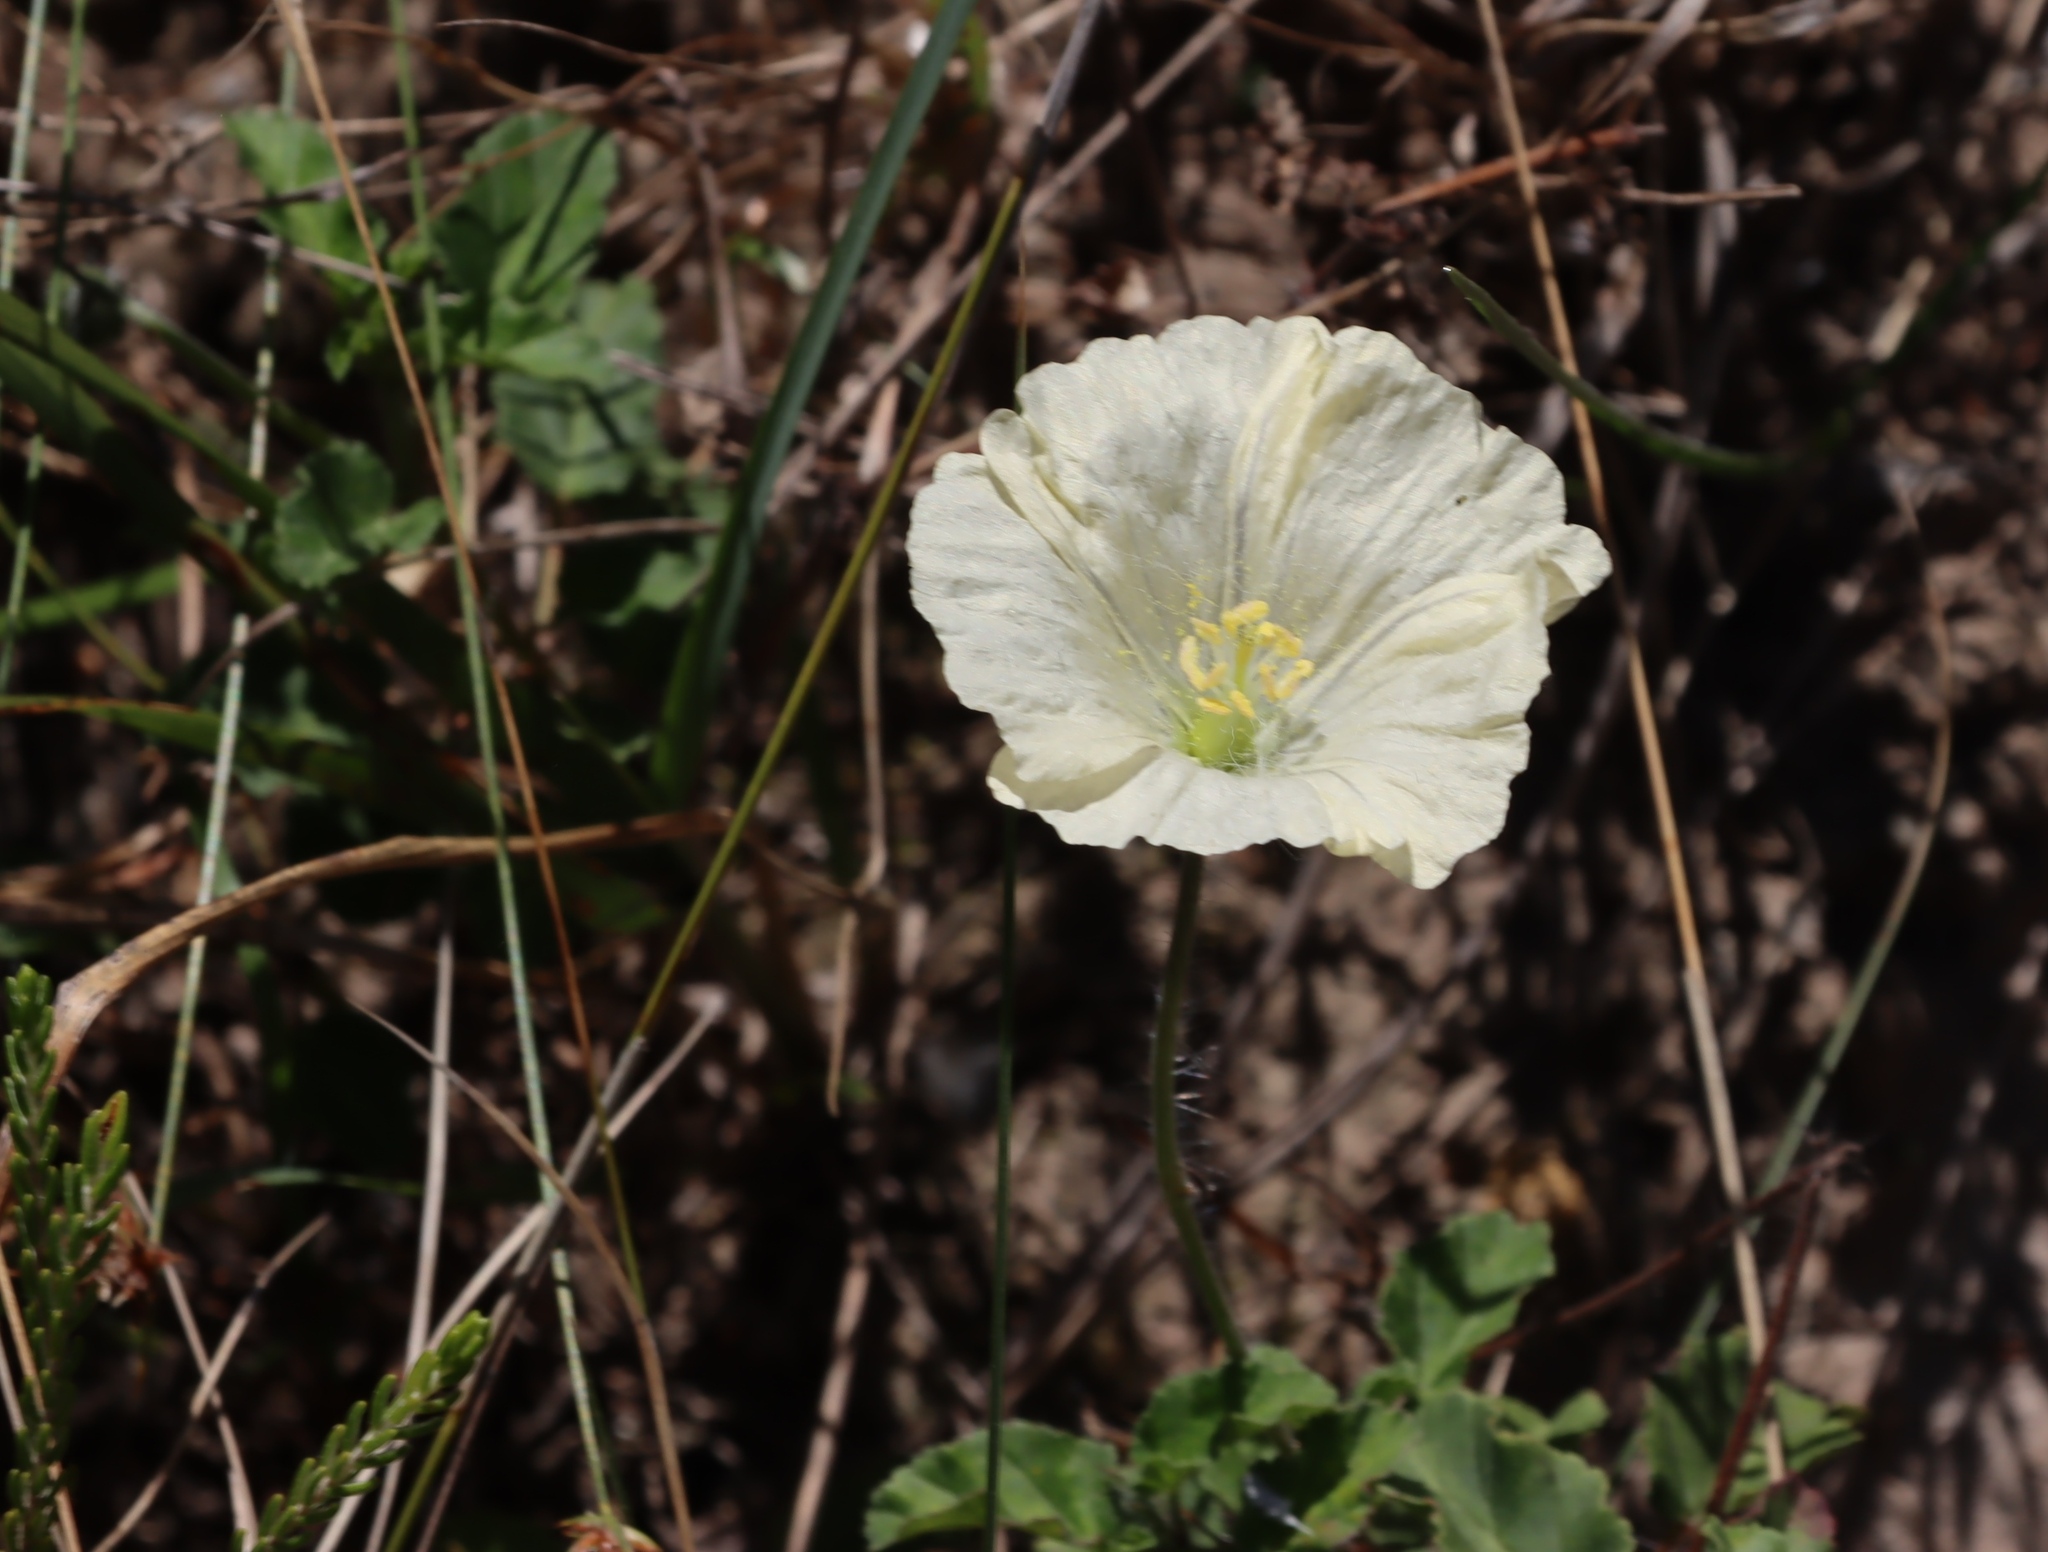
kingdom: Plantae
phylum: Tracheophyta
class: Magnoliopsida
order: Geraniales
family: Geraniaceae
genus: Monsonia
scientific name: Monsonia emarginata
